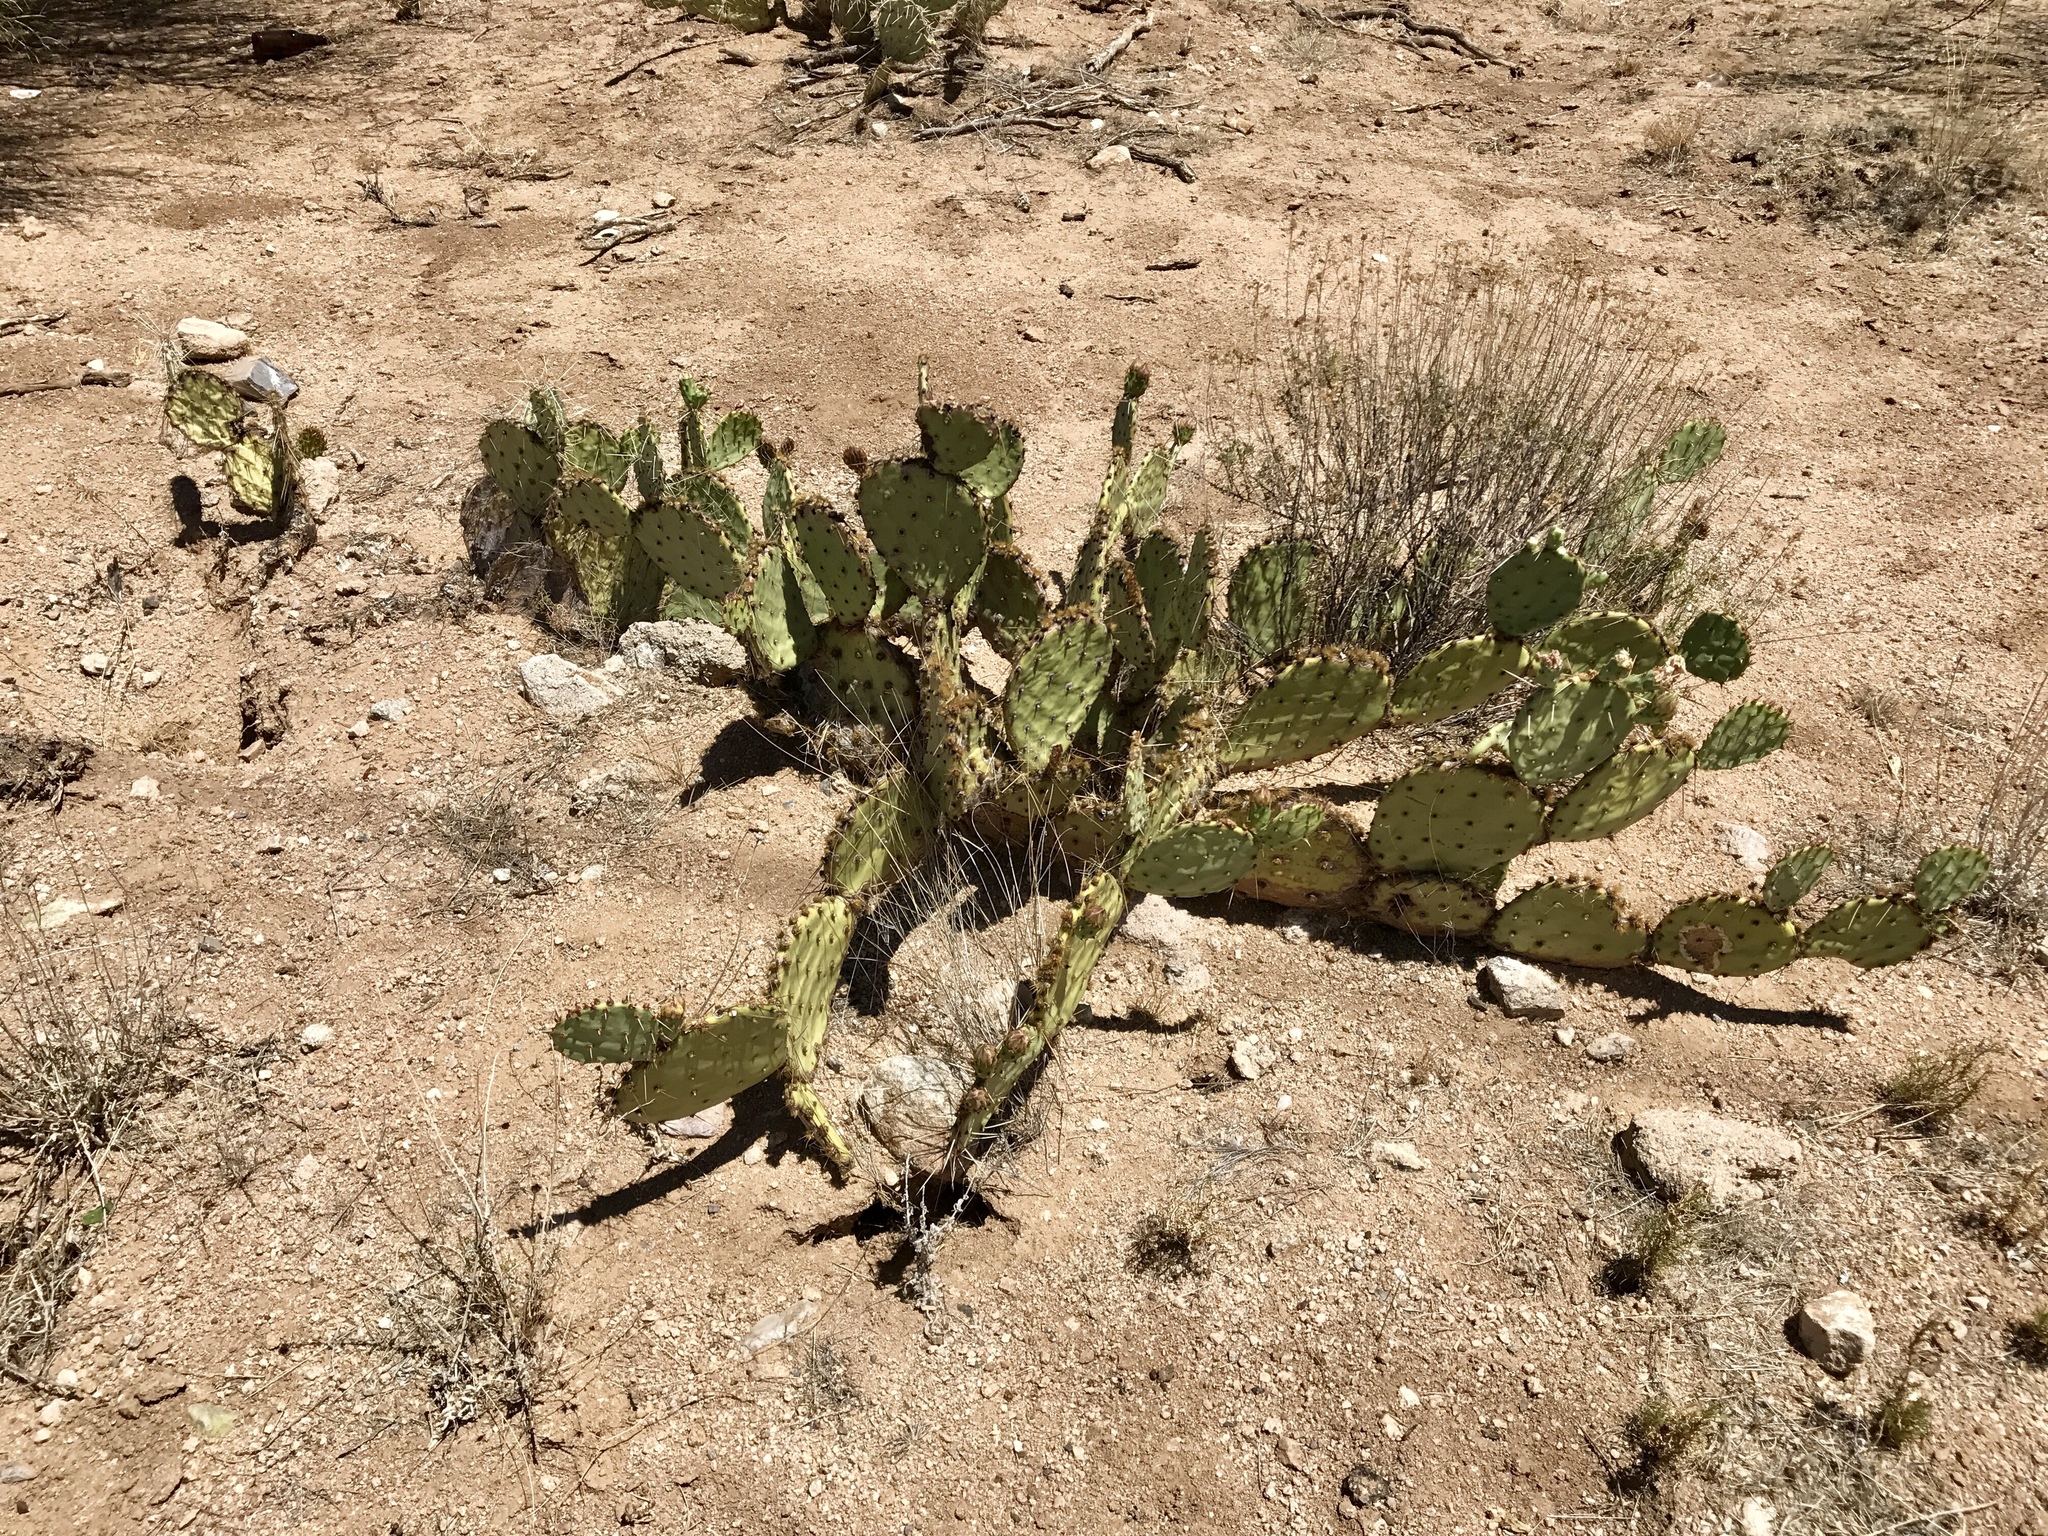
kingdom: Plantae
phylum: Tracheophyta
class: Magnoliopsida
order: Caryophyllales
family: Cactaceae
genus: Opuntia
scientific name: Opuntia phaeacantha
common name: New mexico prickly-pear
